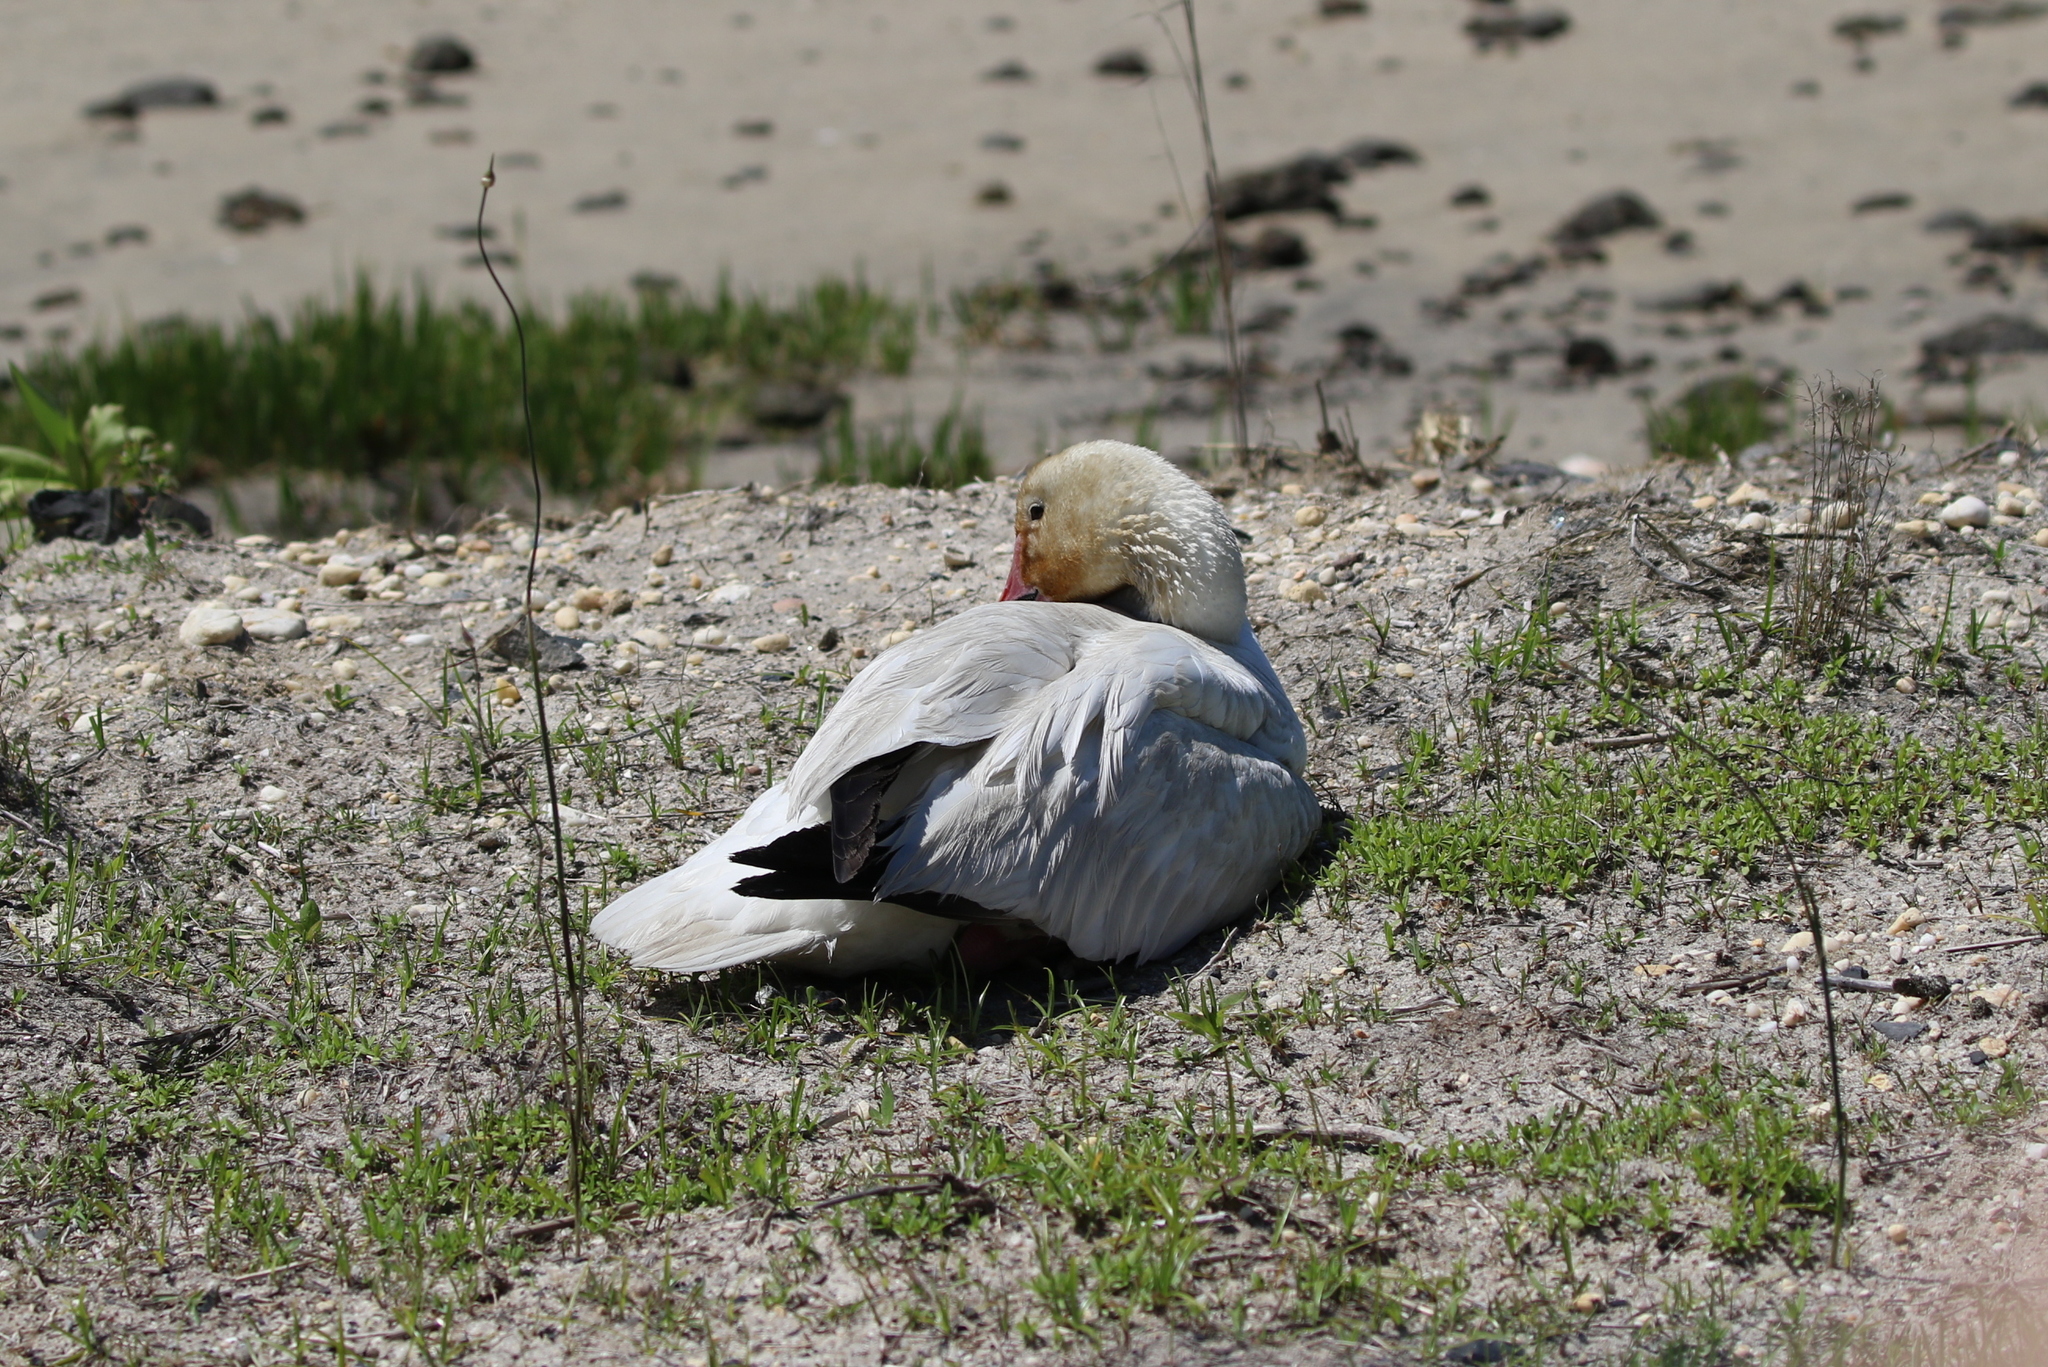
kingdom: Animalia
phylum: Chordata
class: Aves
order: Anseriformes
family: Anatidae
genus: Anser
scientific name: Anser caerulescens
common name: Snow goose
